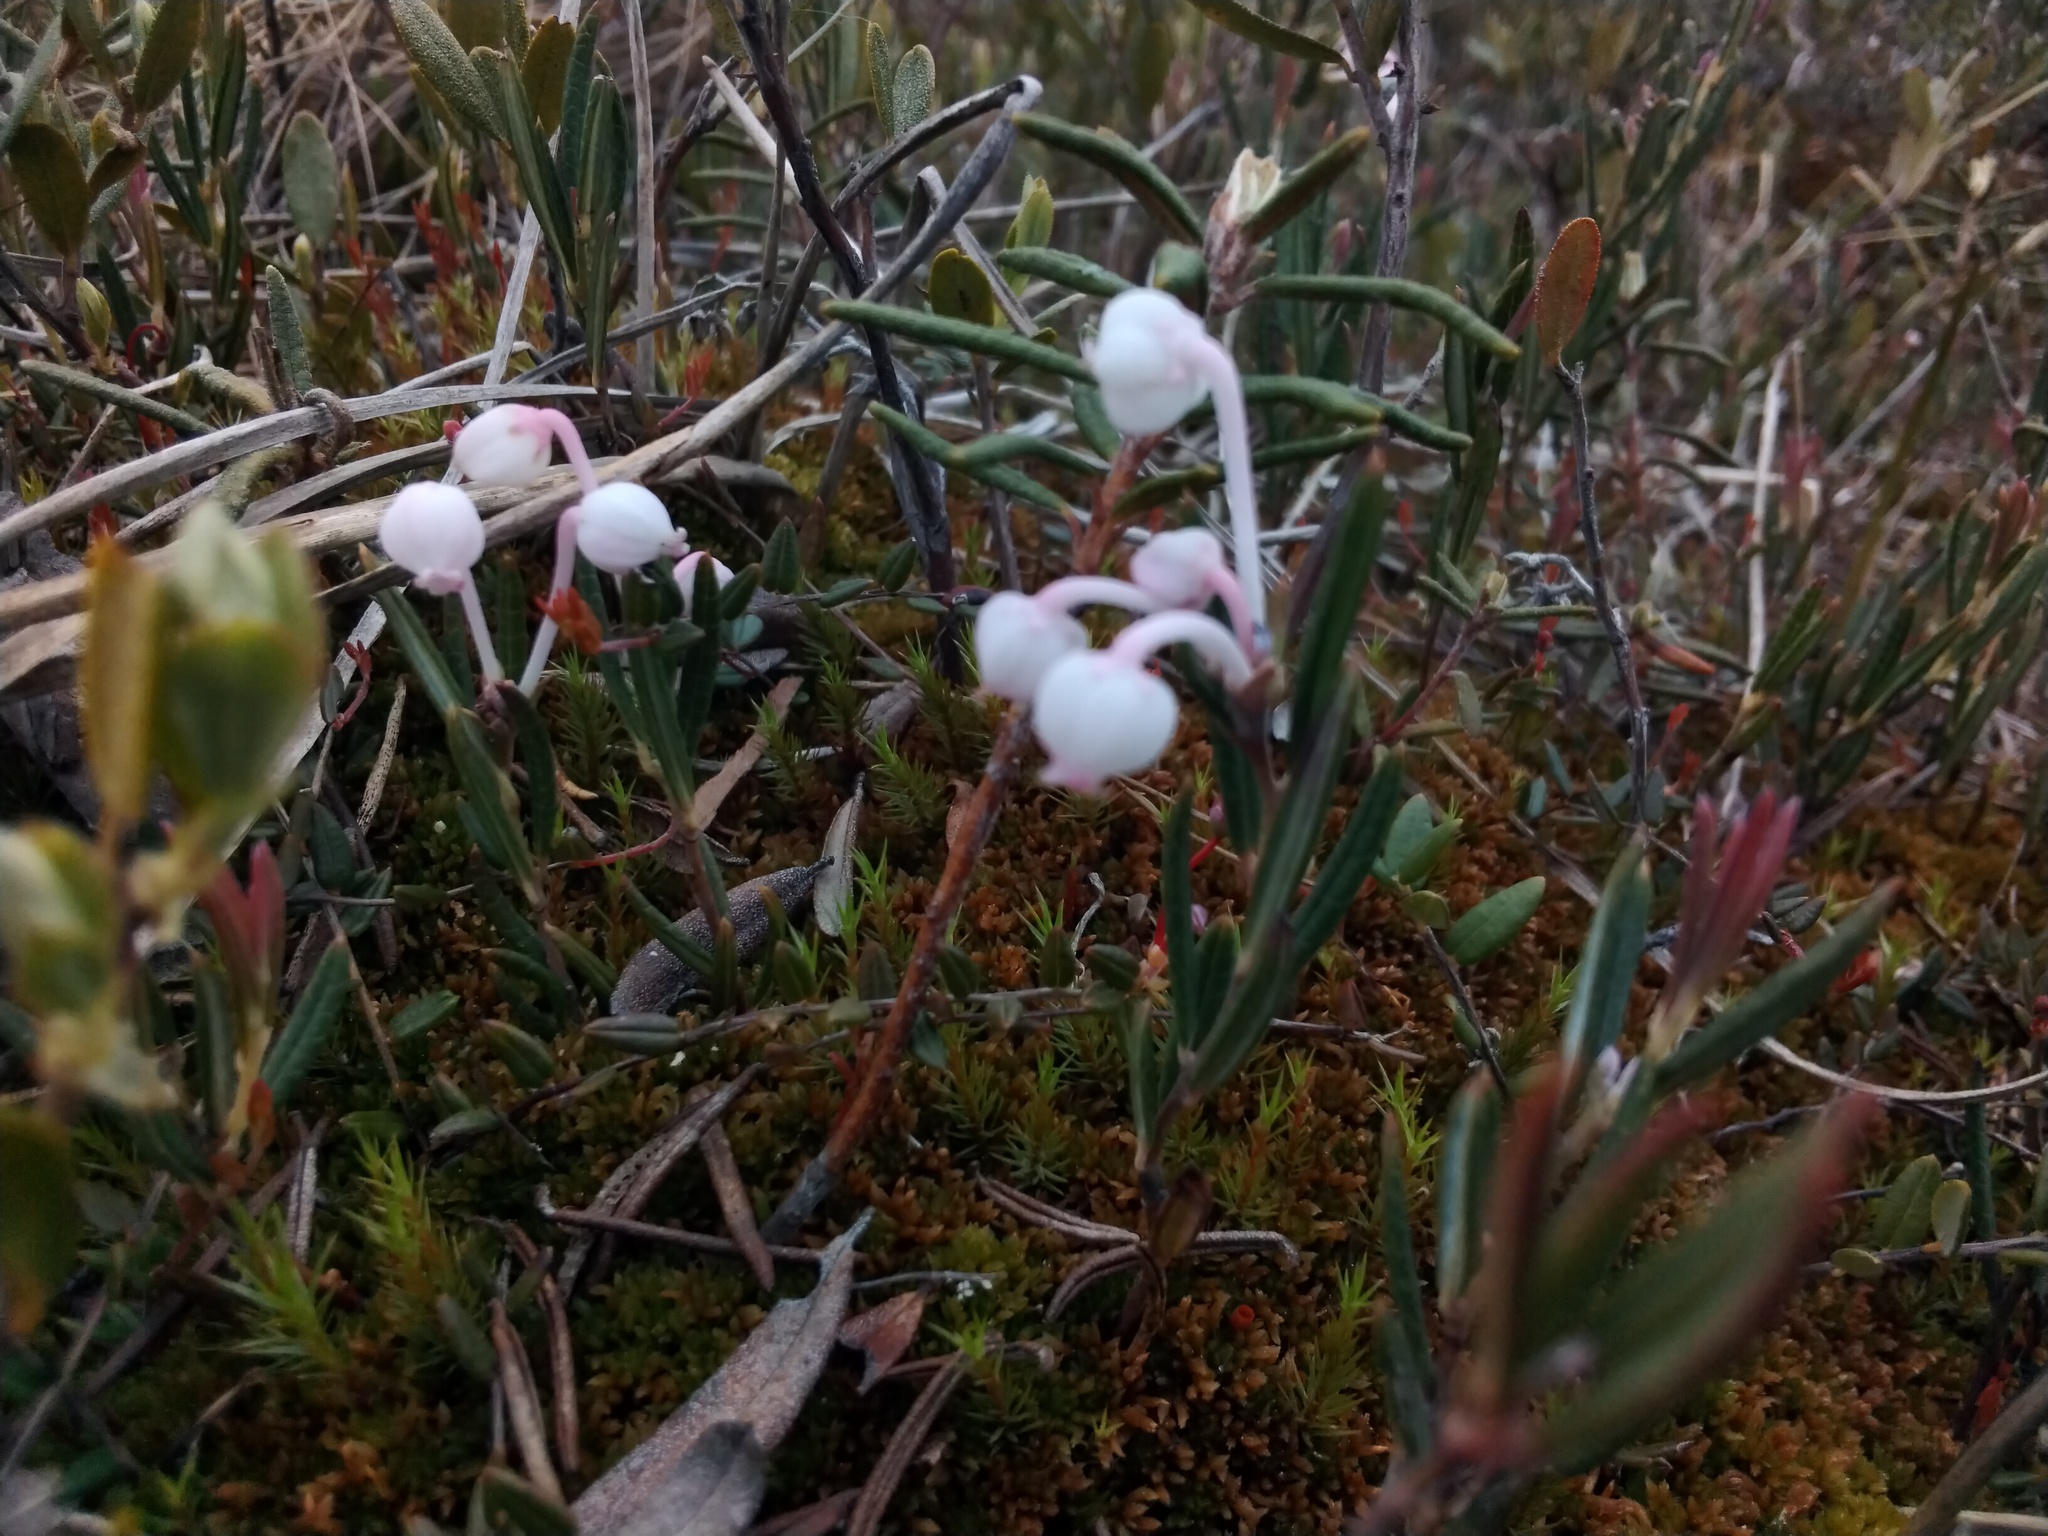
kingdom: Plantae
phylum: Tracheophyta
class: Magnoliopsida
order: Ericales
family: Ericaceae
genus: Andromeda
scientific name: Andromeda polifolia
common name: Bog-rosemary
